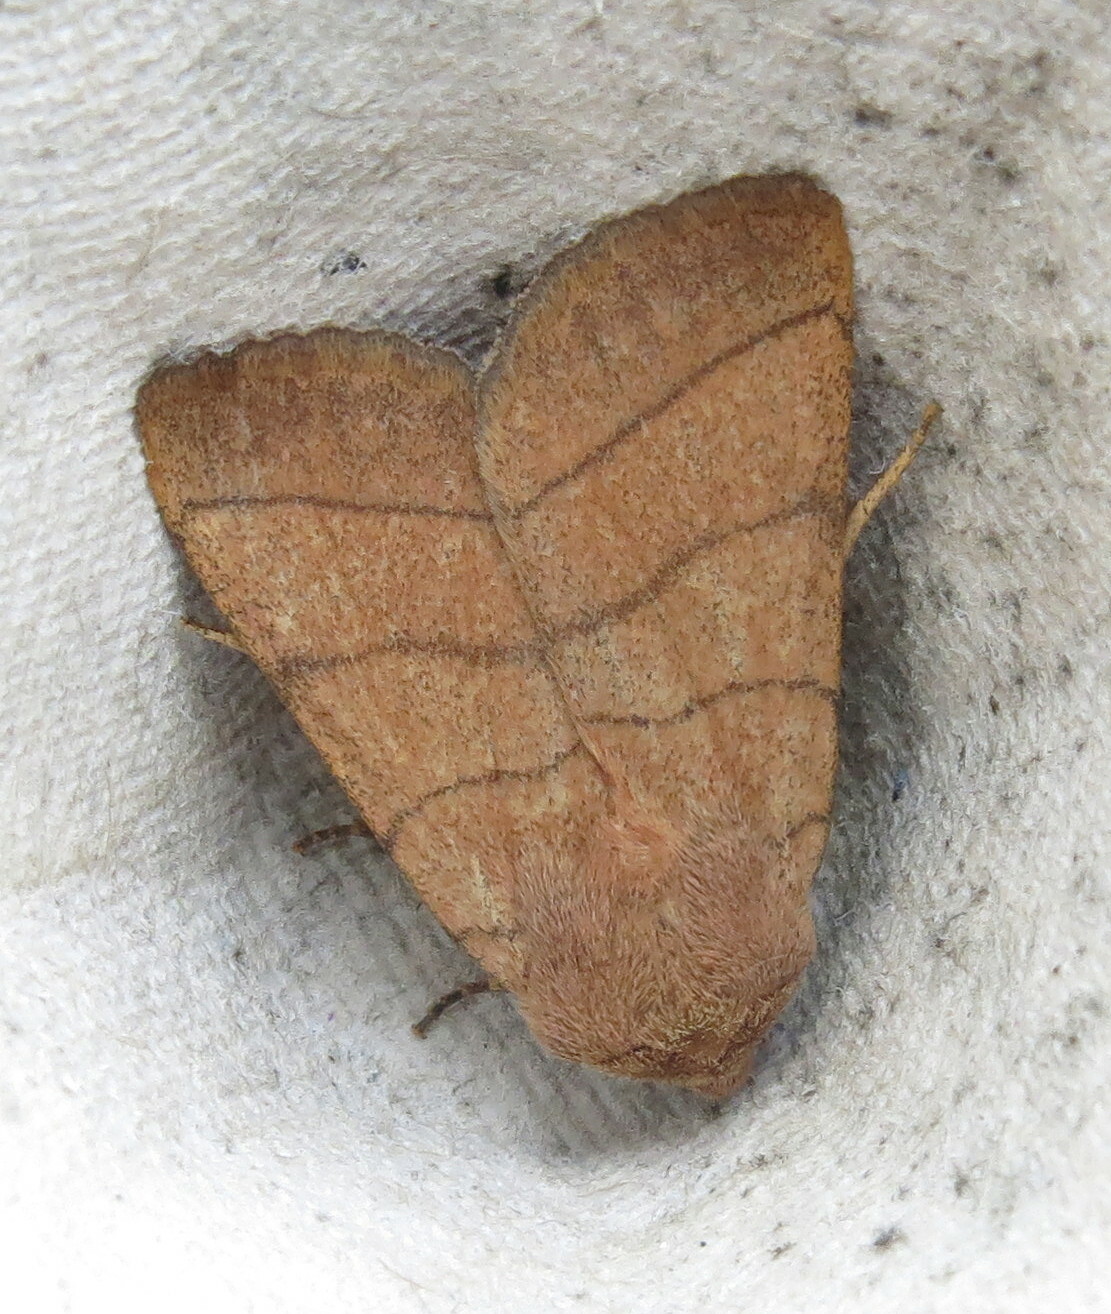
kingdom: Animalia
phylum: Arthropoda
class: Insecta
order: Lepidoptera
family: Noctuidae
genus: Charanyca
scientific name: Charanyca trigrammica
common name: Treble lines
